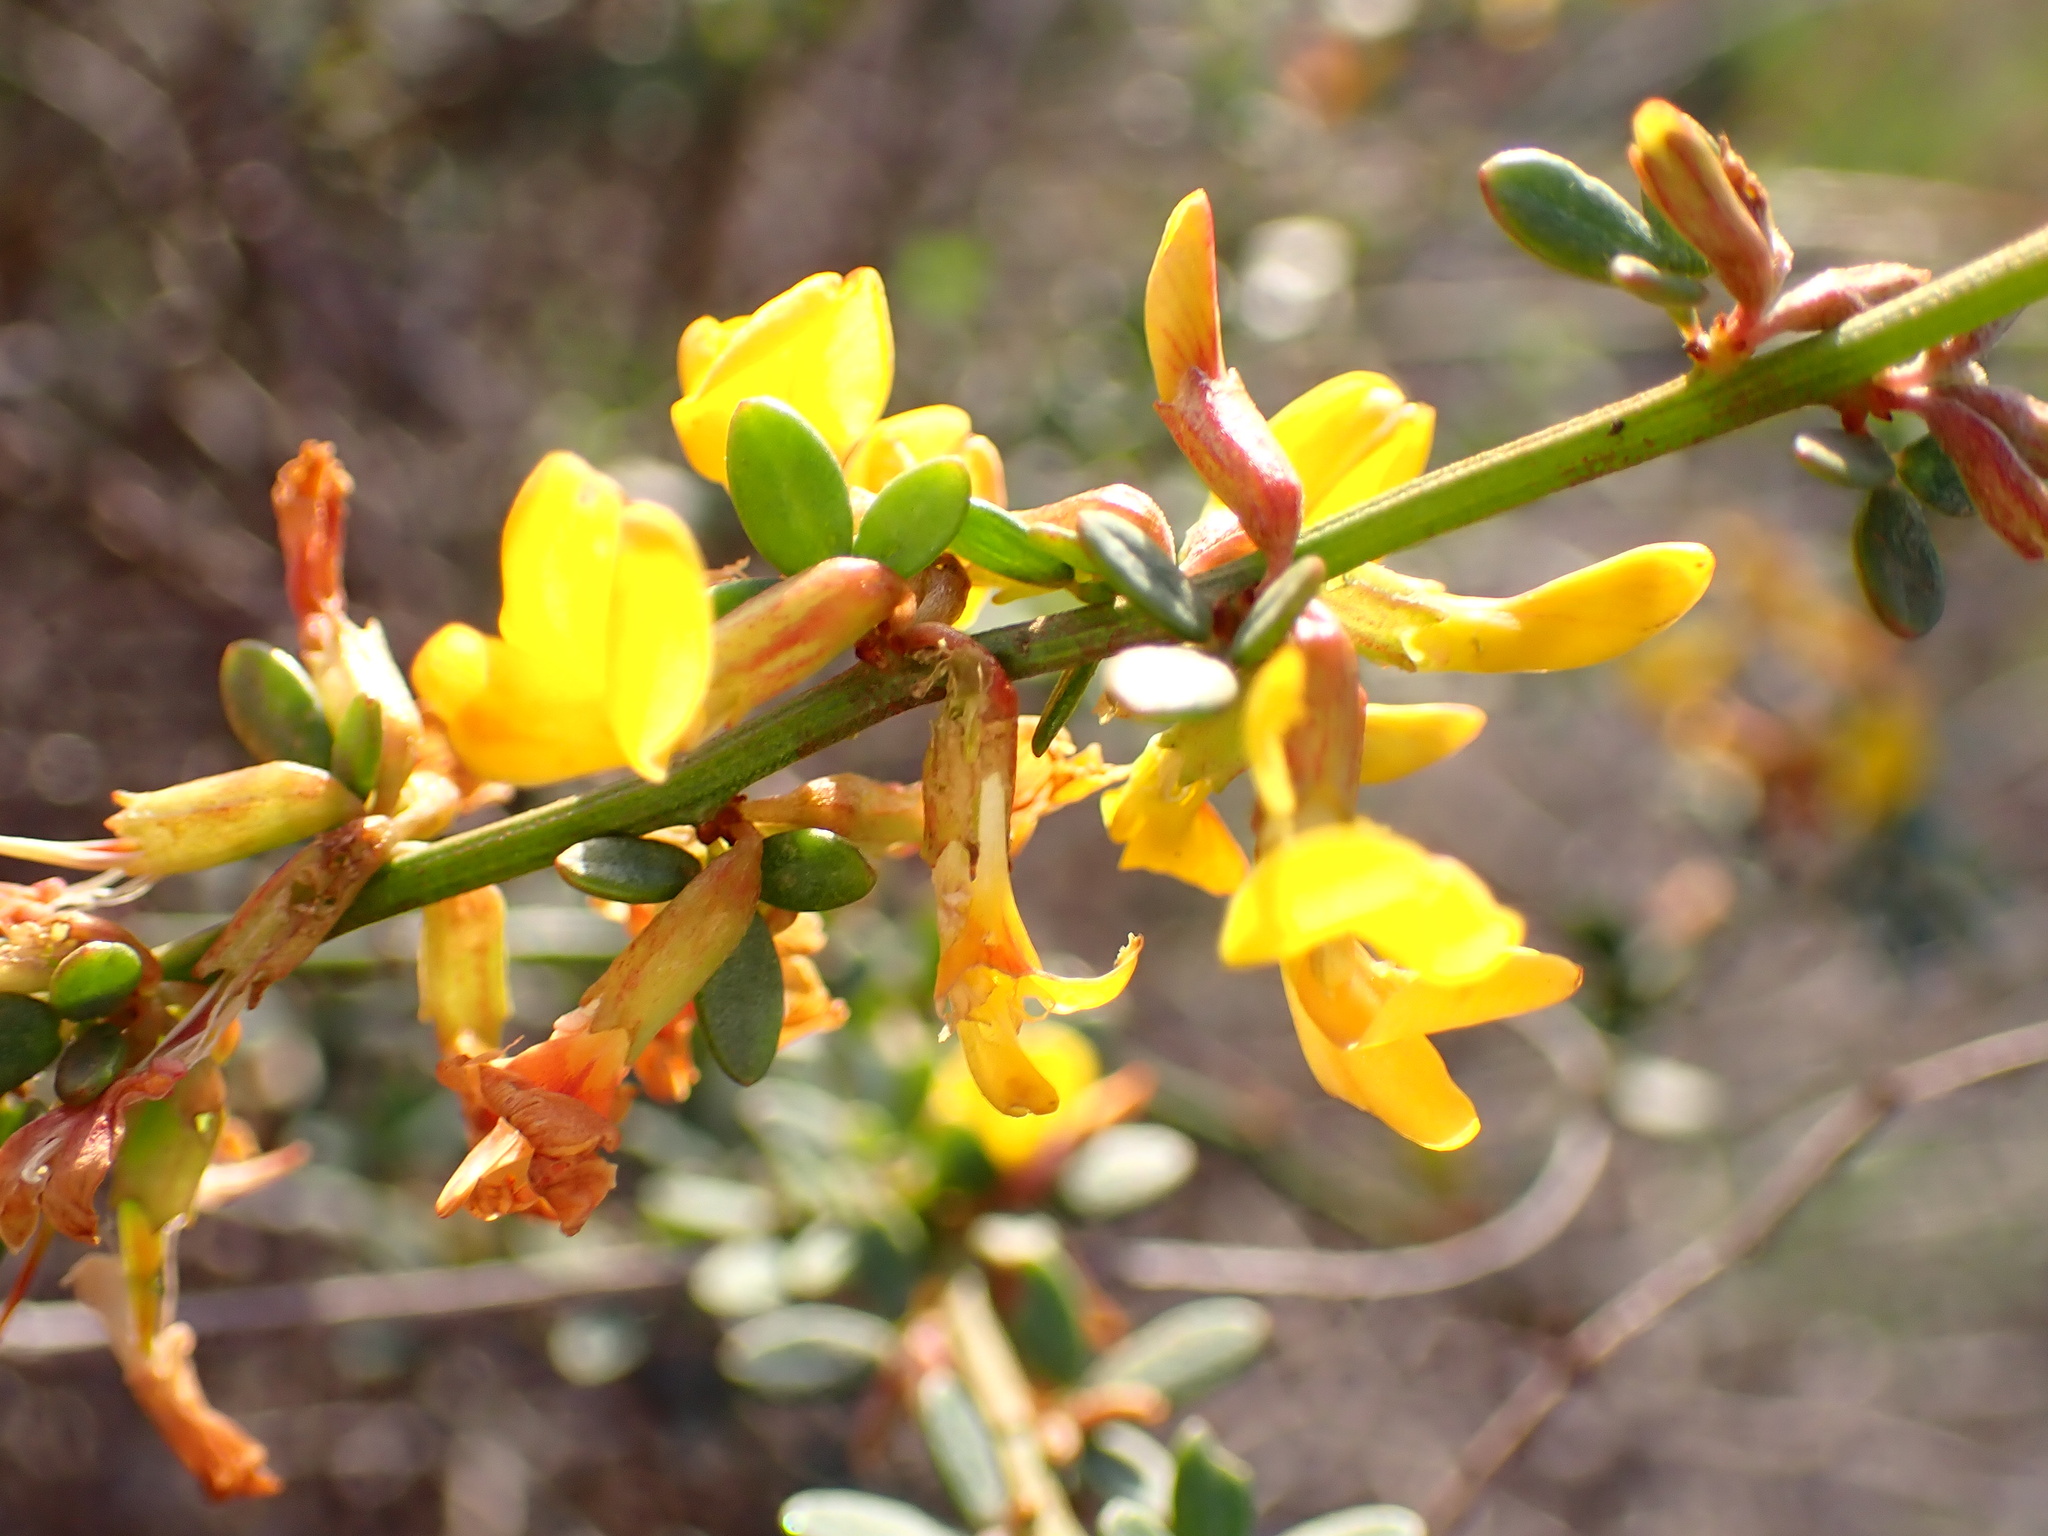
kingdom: Plantae
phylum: Tracheophyta
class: Magnoliopsida
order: Fabales
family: Fabaceae
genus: Acmispon
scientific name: Acmispon glaber
